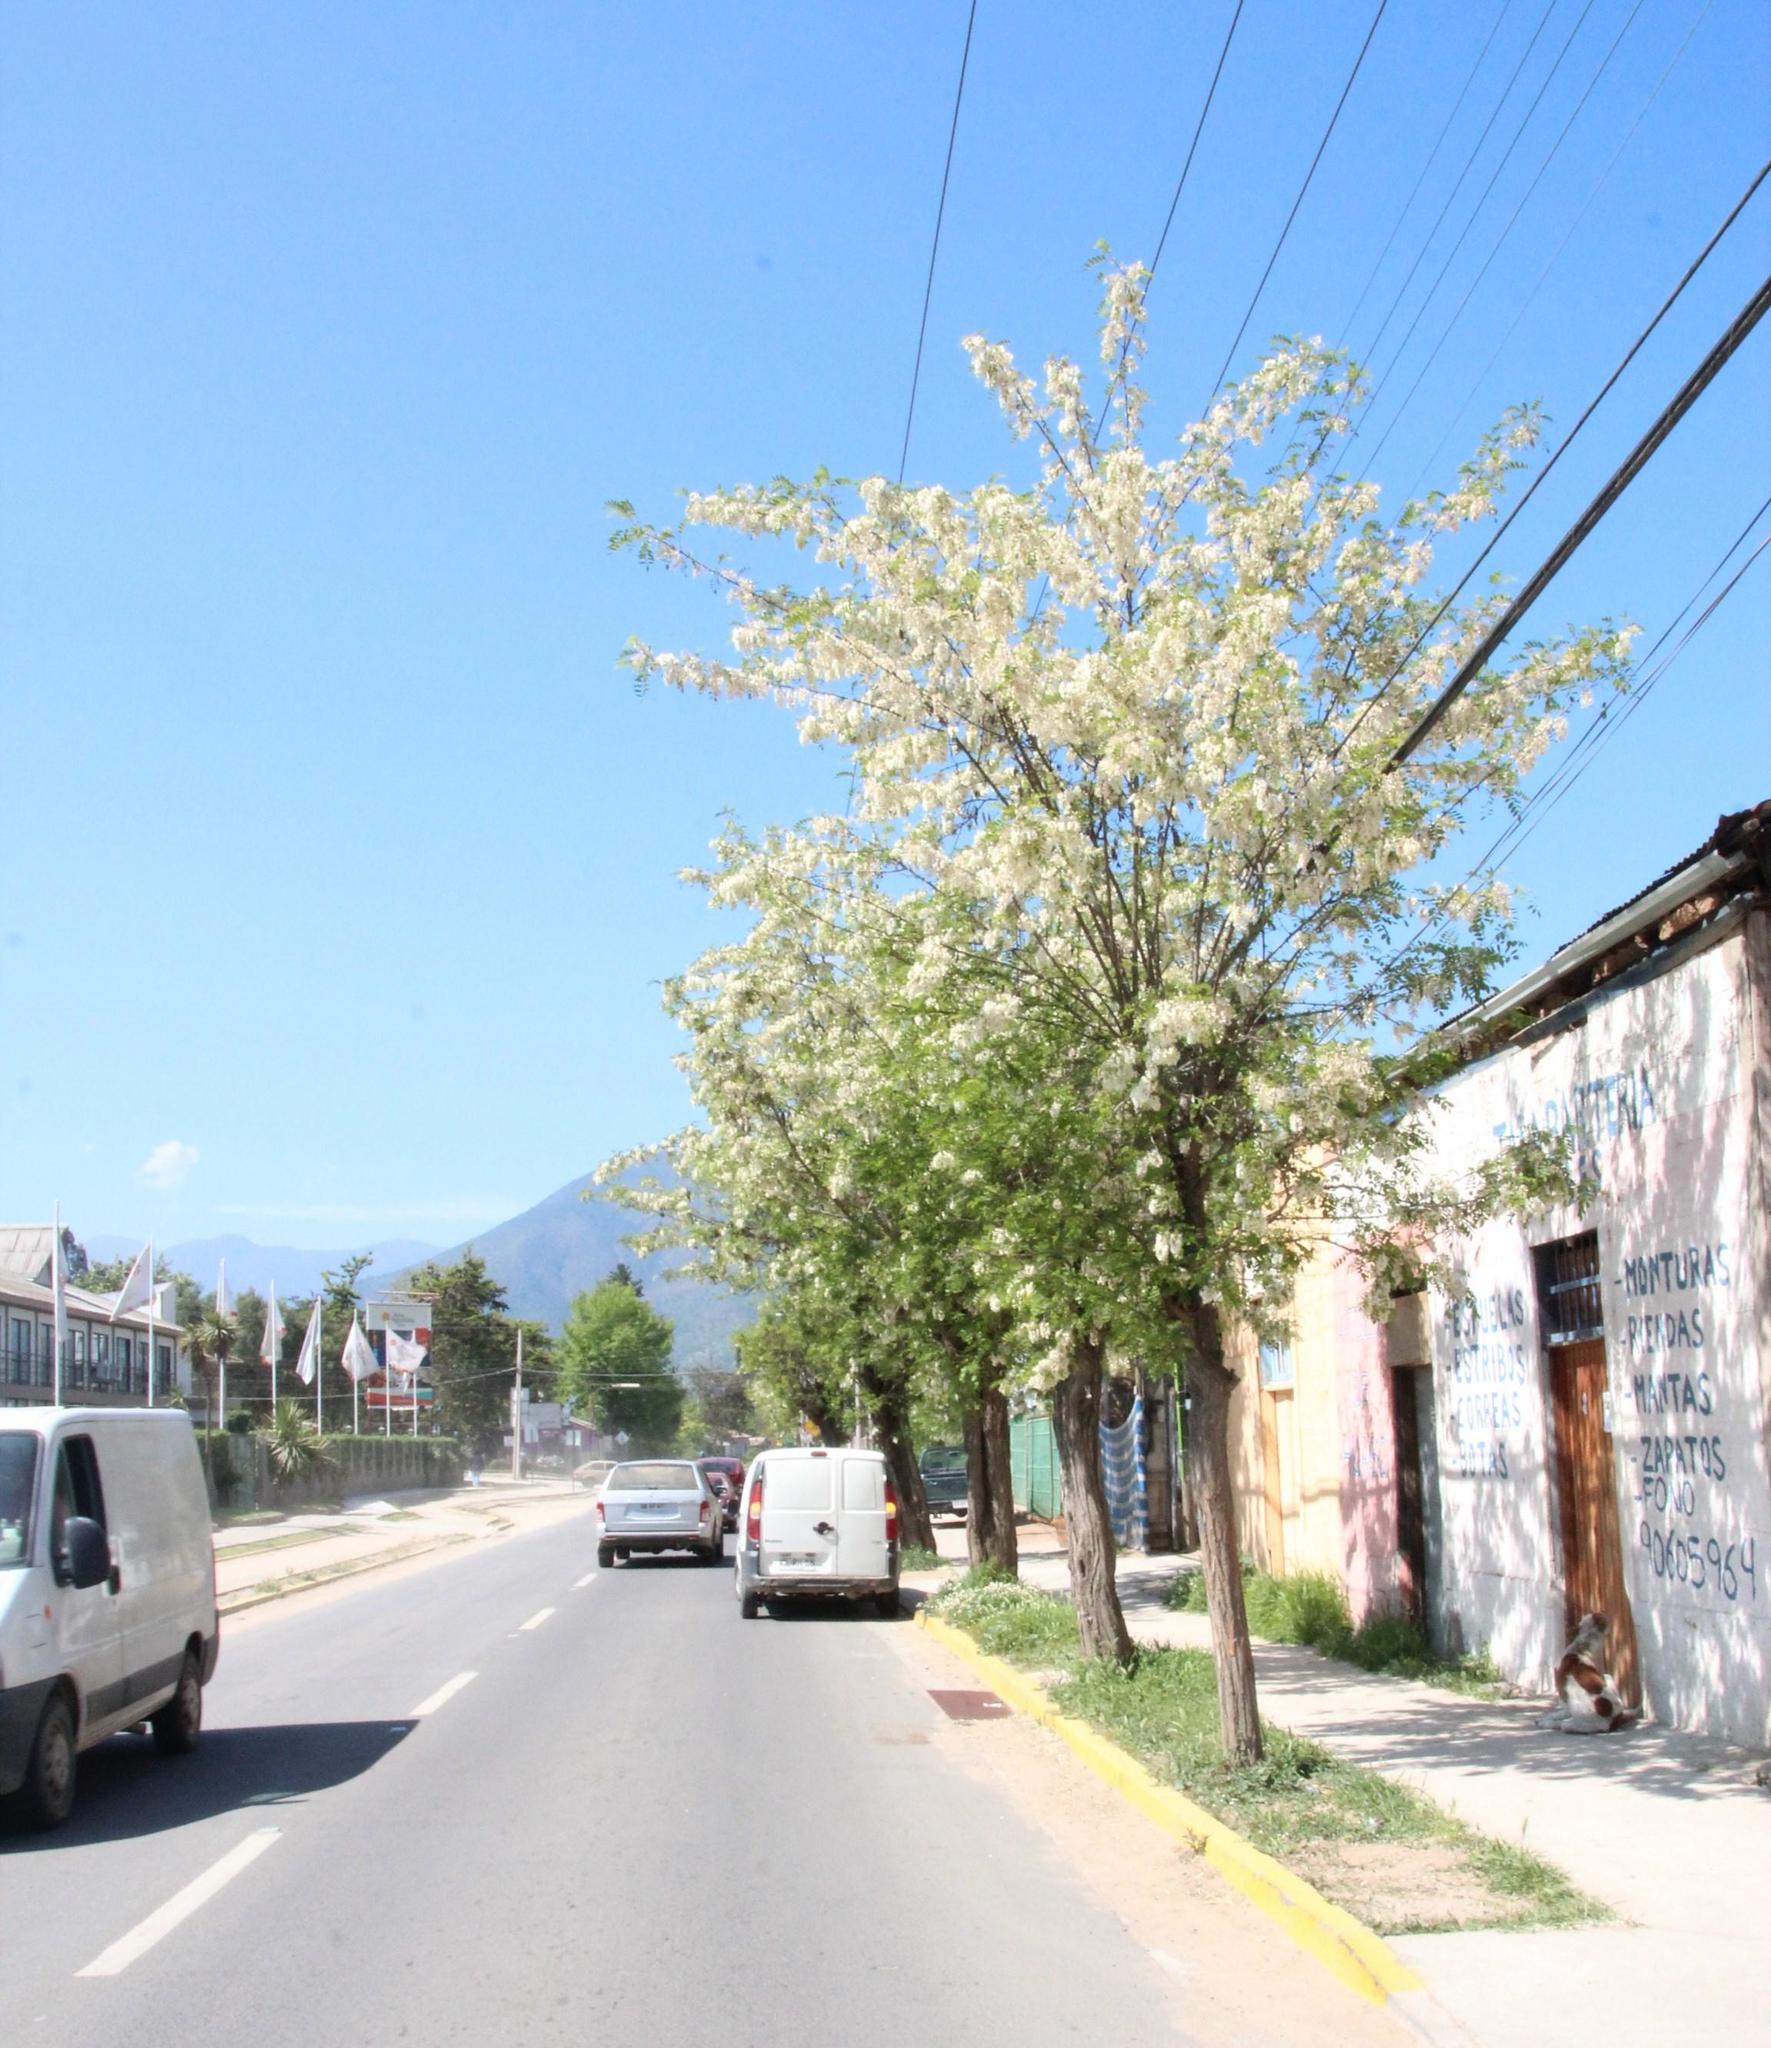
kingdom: Plantae
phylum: Tracheophyta
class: Magnoliopsida
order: Fabales
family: Fabaceae
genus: Robinia
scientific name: Robinia pseudoacacia
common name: Black locust
